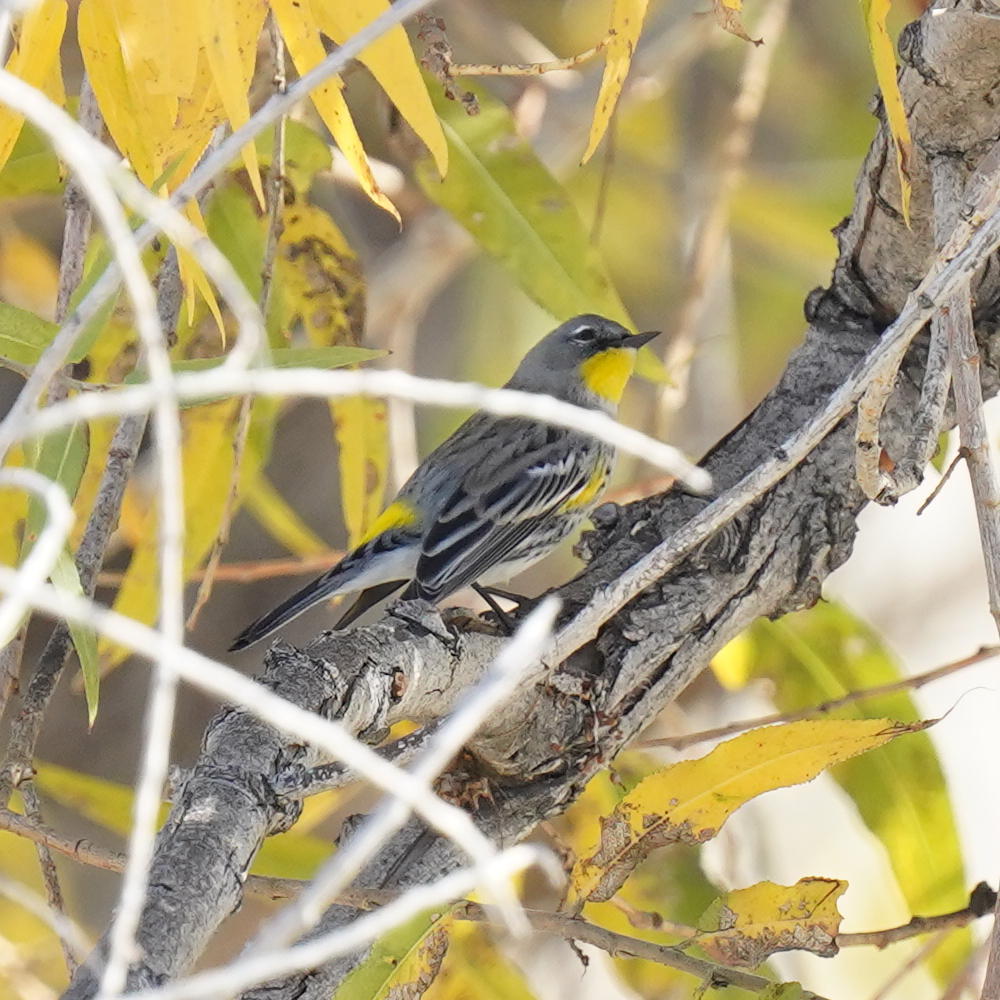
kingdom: Animalia
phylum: Chordata
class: Aves
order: Passeriformes
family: Parulidae
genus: Setophaga
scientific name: Setophaga auduboni
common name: Audubon's warbler
